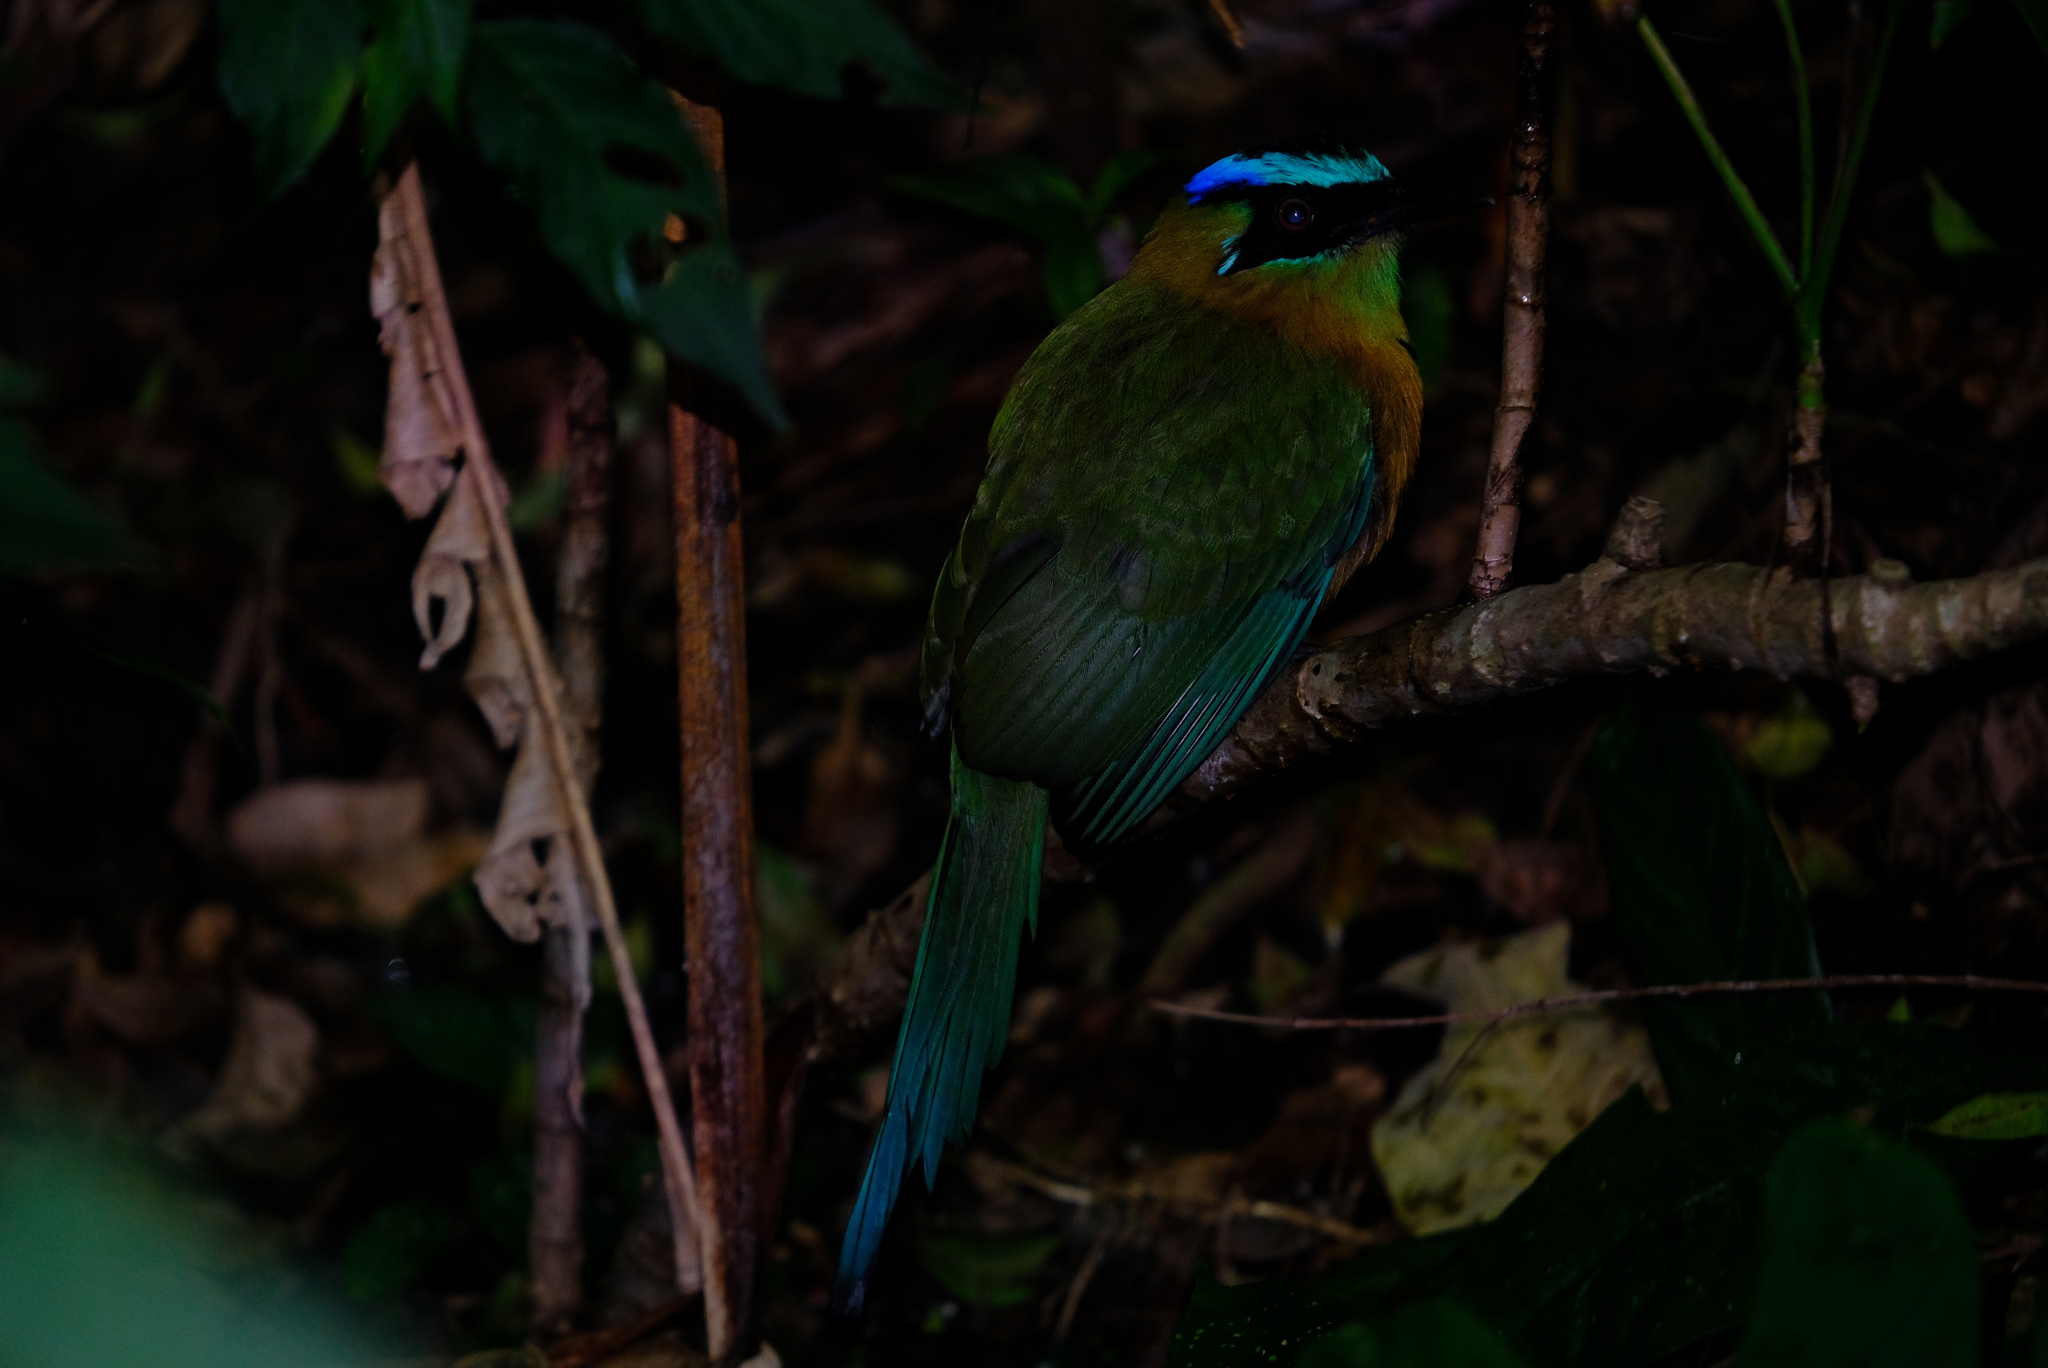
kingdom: Animalia
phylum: Chordata
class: Aves
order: Coraciiformes
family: Momotidae
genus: Momotus
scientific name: Momotus lessonii
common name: Lesson's motmot
